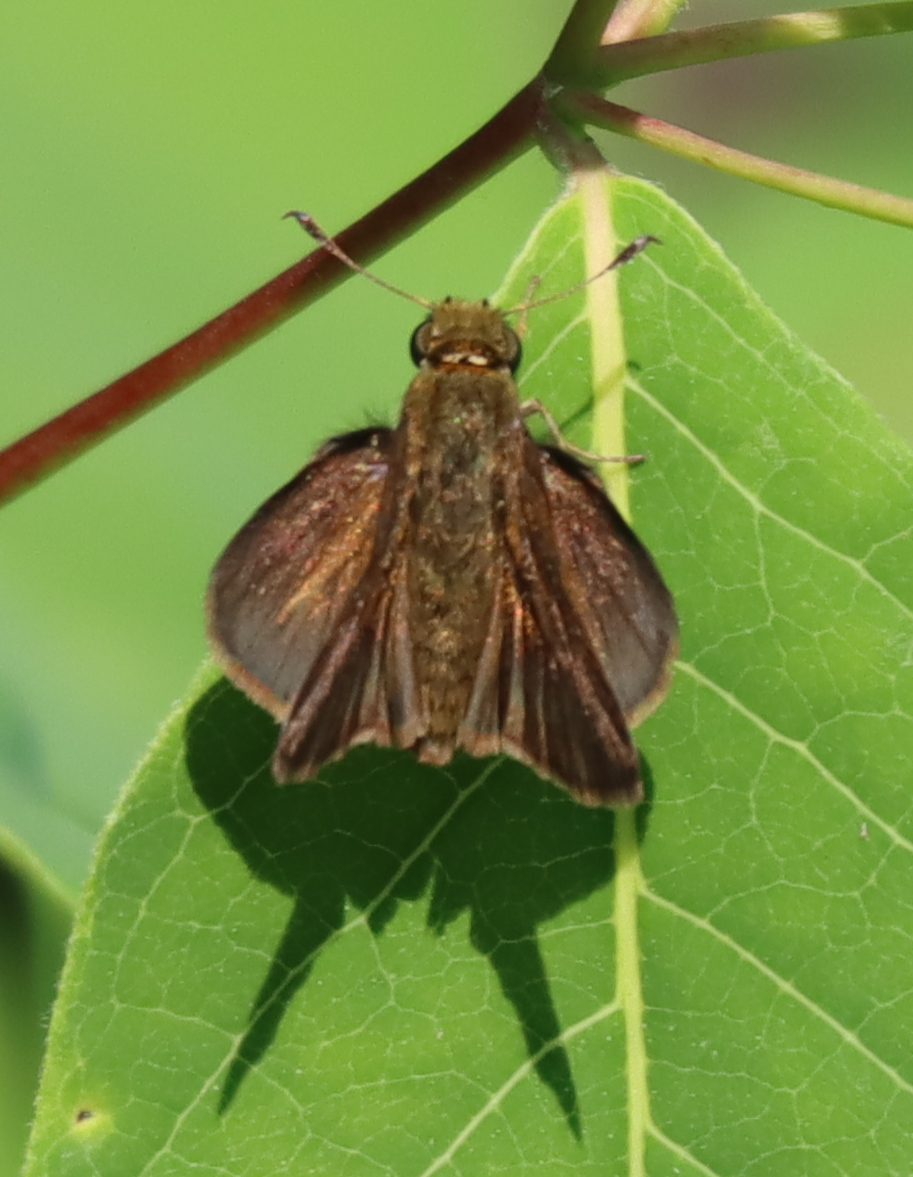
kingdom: Animalia
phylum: Arthropoda
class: Insecta
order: Lepidoptera
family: Hesperiidae
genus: Euphyes
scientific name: Euphyes vestris
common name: Dun skipper
